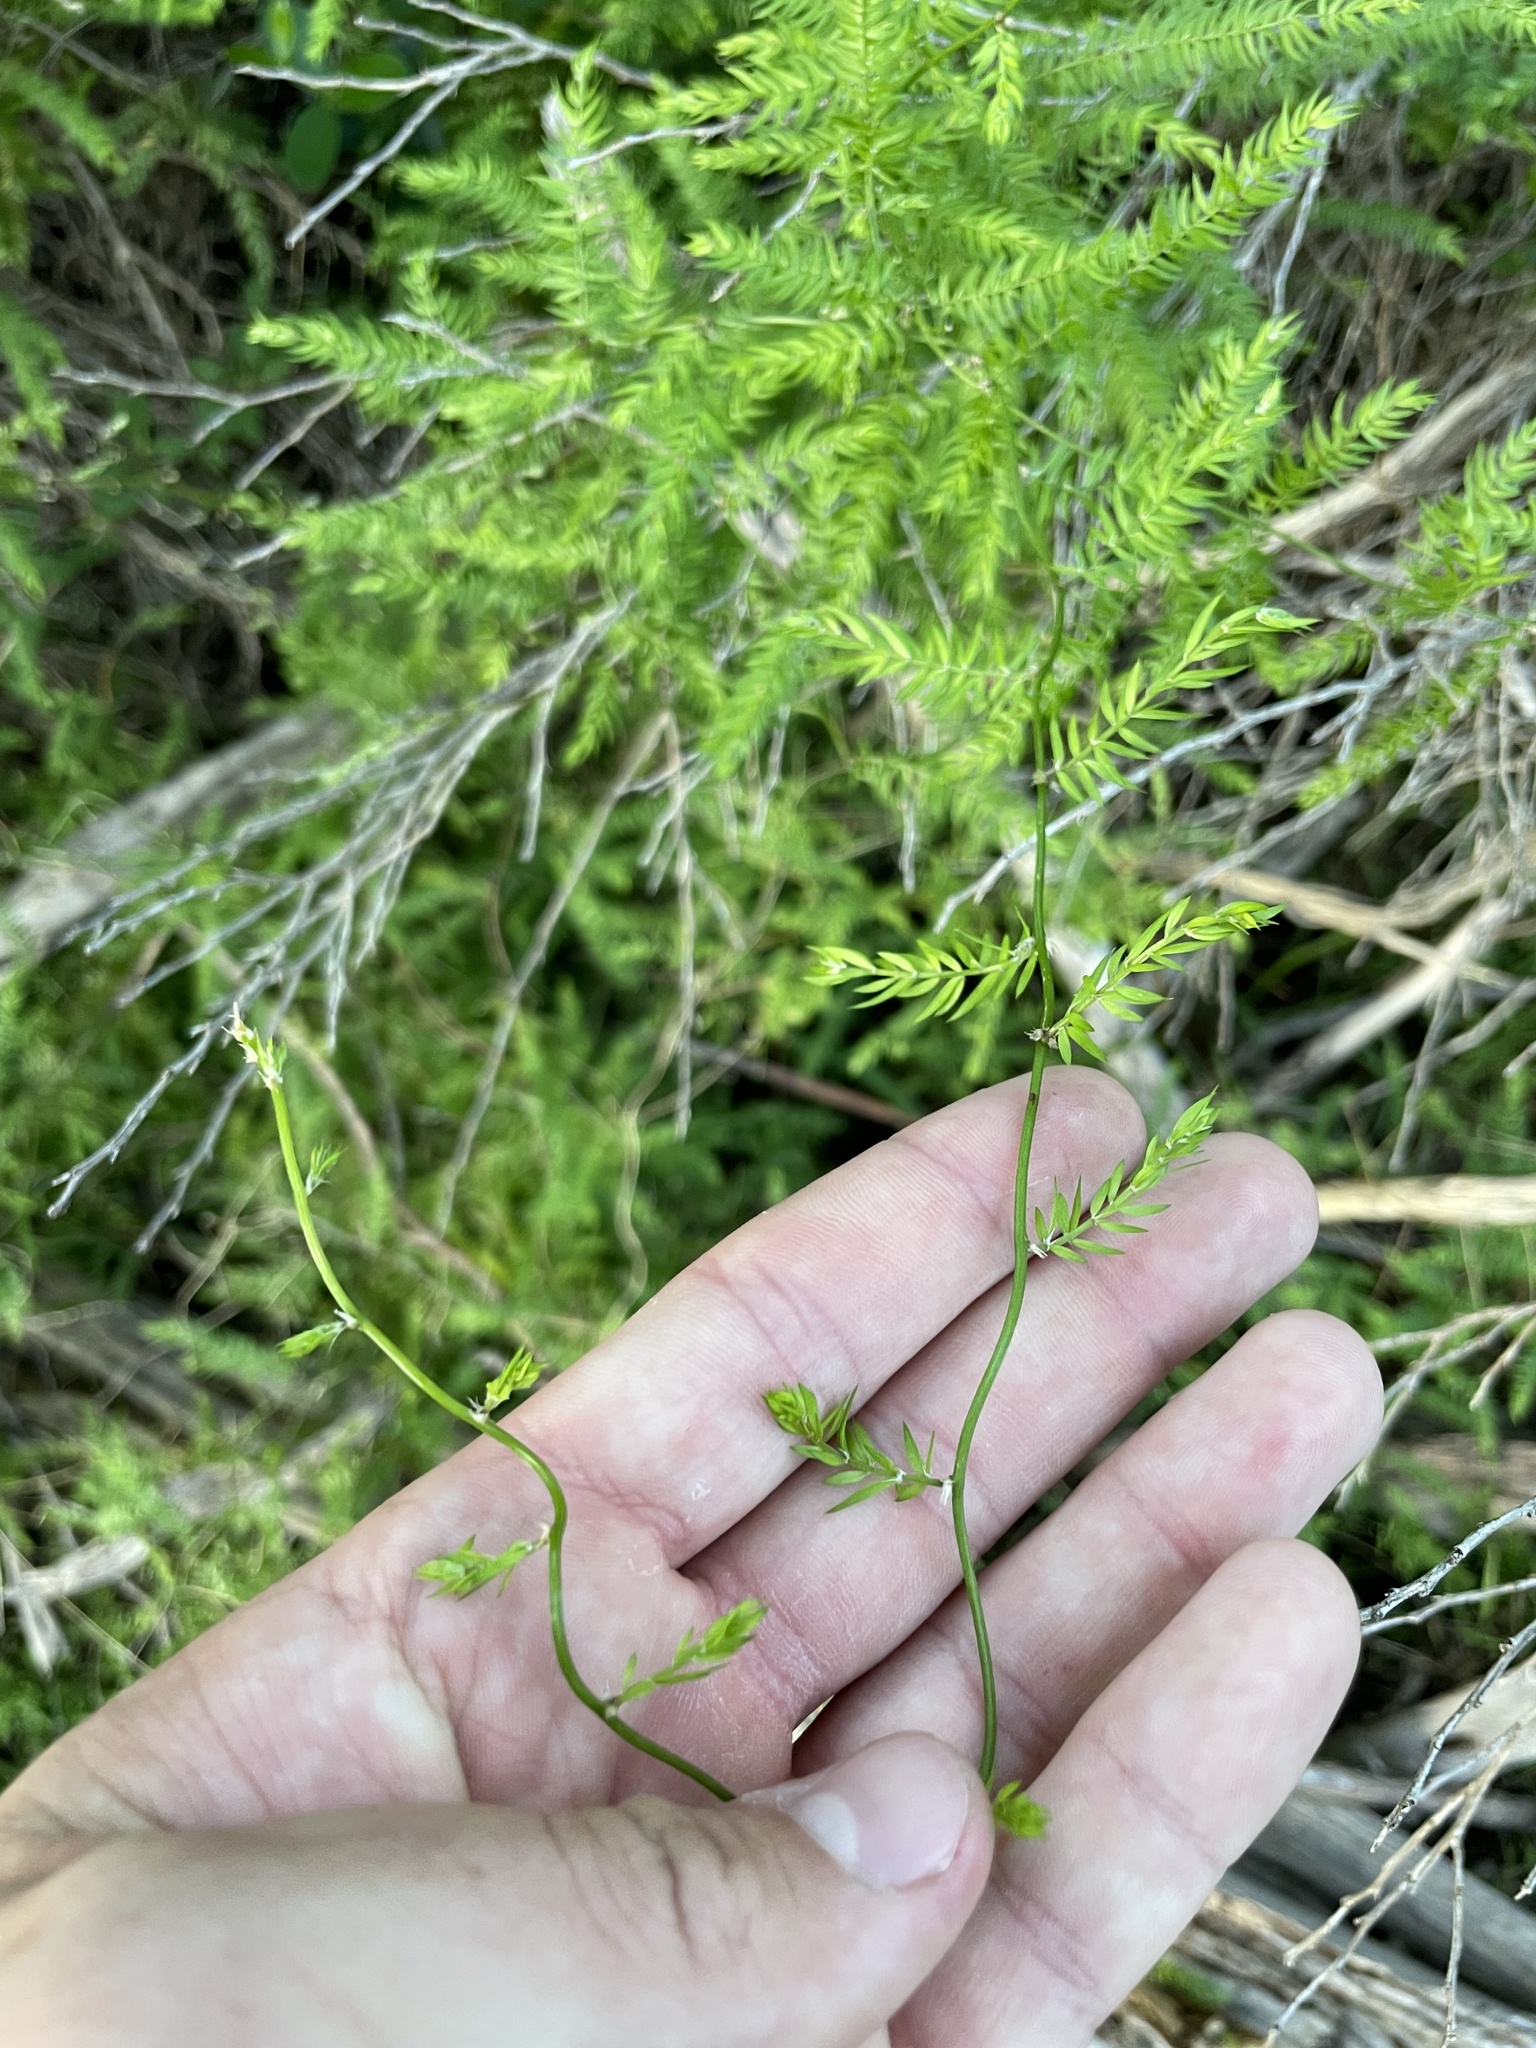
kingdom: Plantae
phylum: Tracheophyta
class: Liliopsida
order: Asparagales
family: Asparagaceae
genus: Asparagus
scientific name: Asparagus scandens
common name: Asparagus-fern
